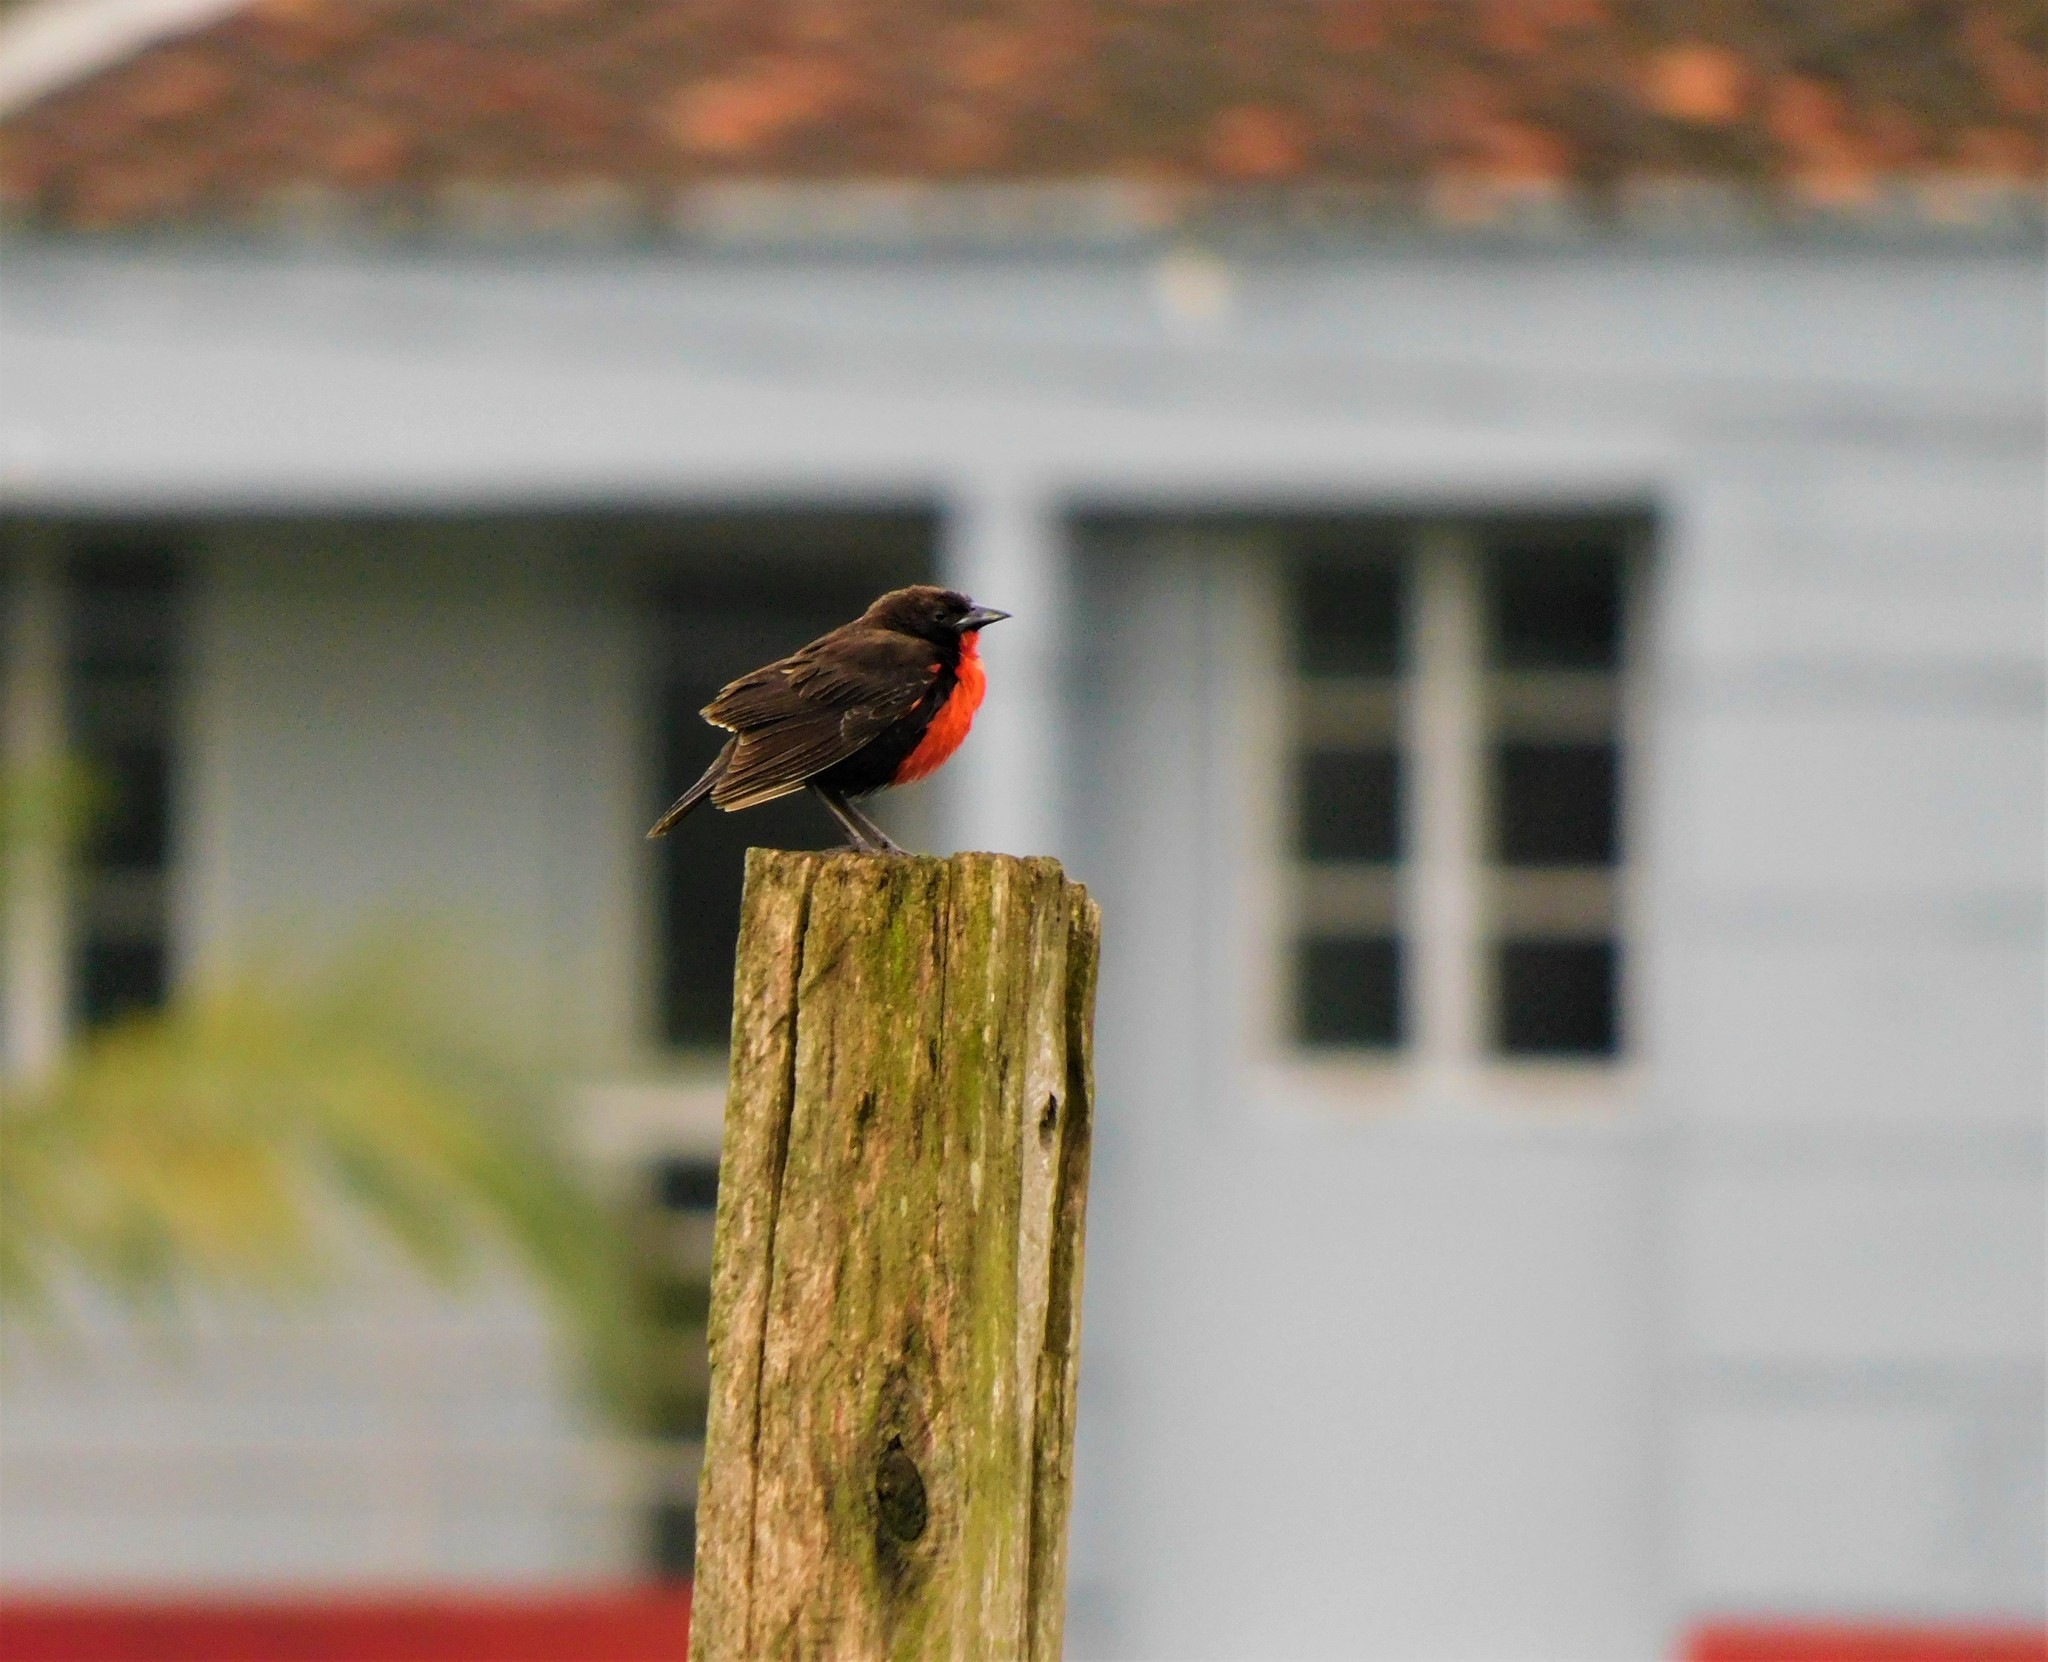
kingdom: Animalia
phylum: Chordata
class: Aves
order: Passeriformes
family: Icteridae
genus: Sturnella
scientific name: Sturnella militaris
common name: Red-breasted blackbird
